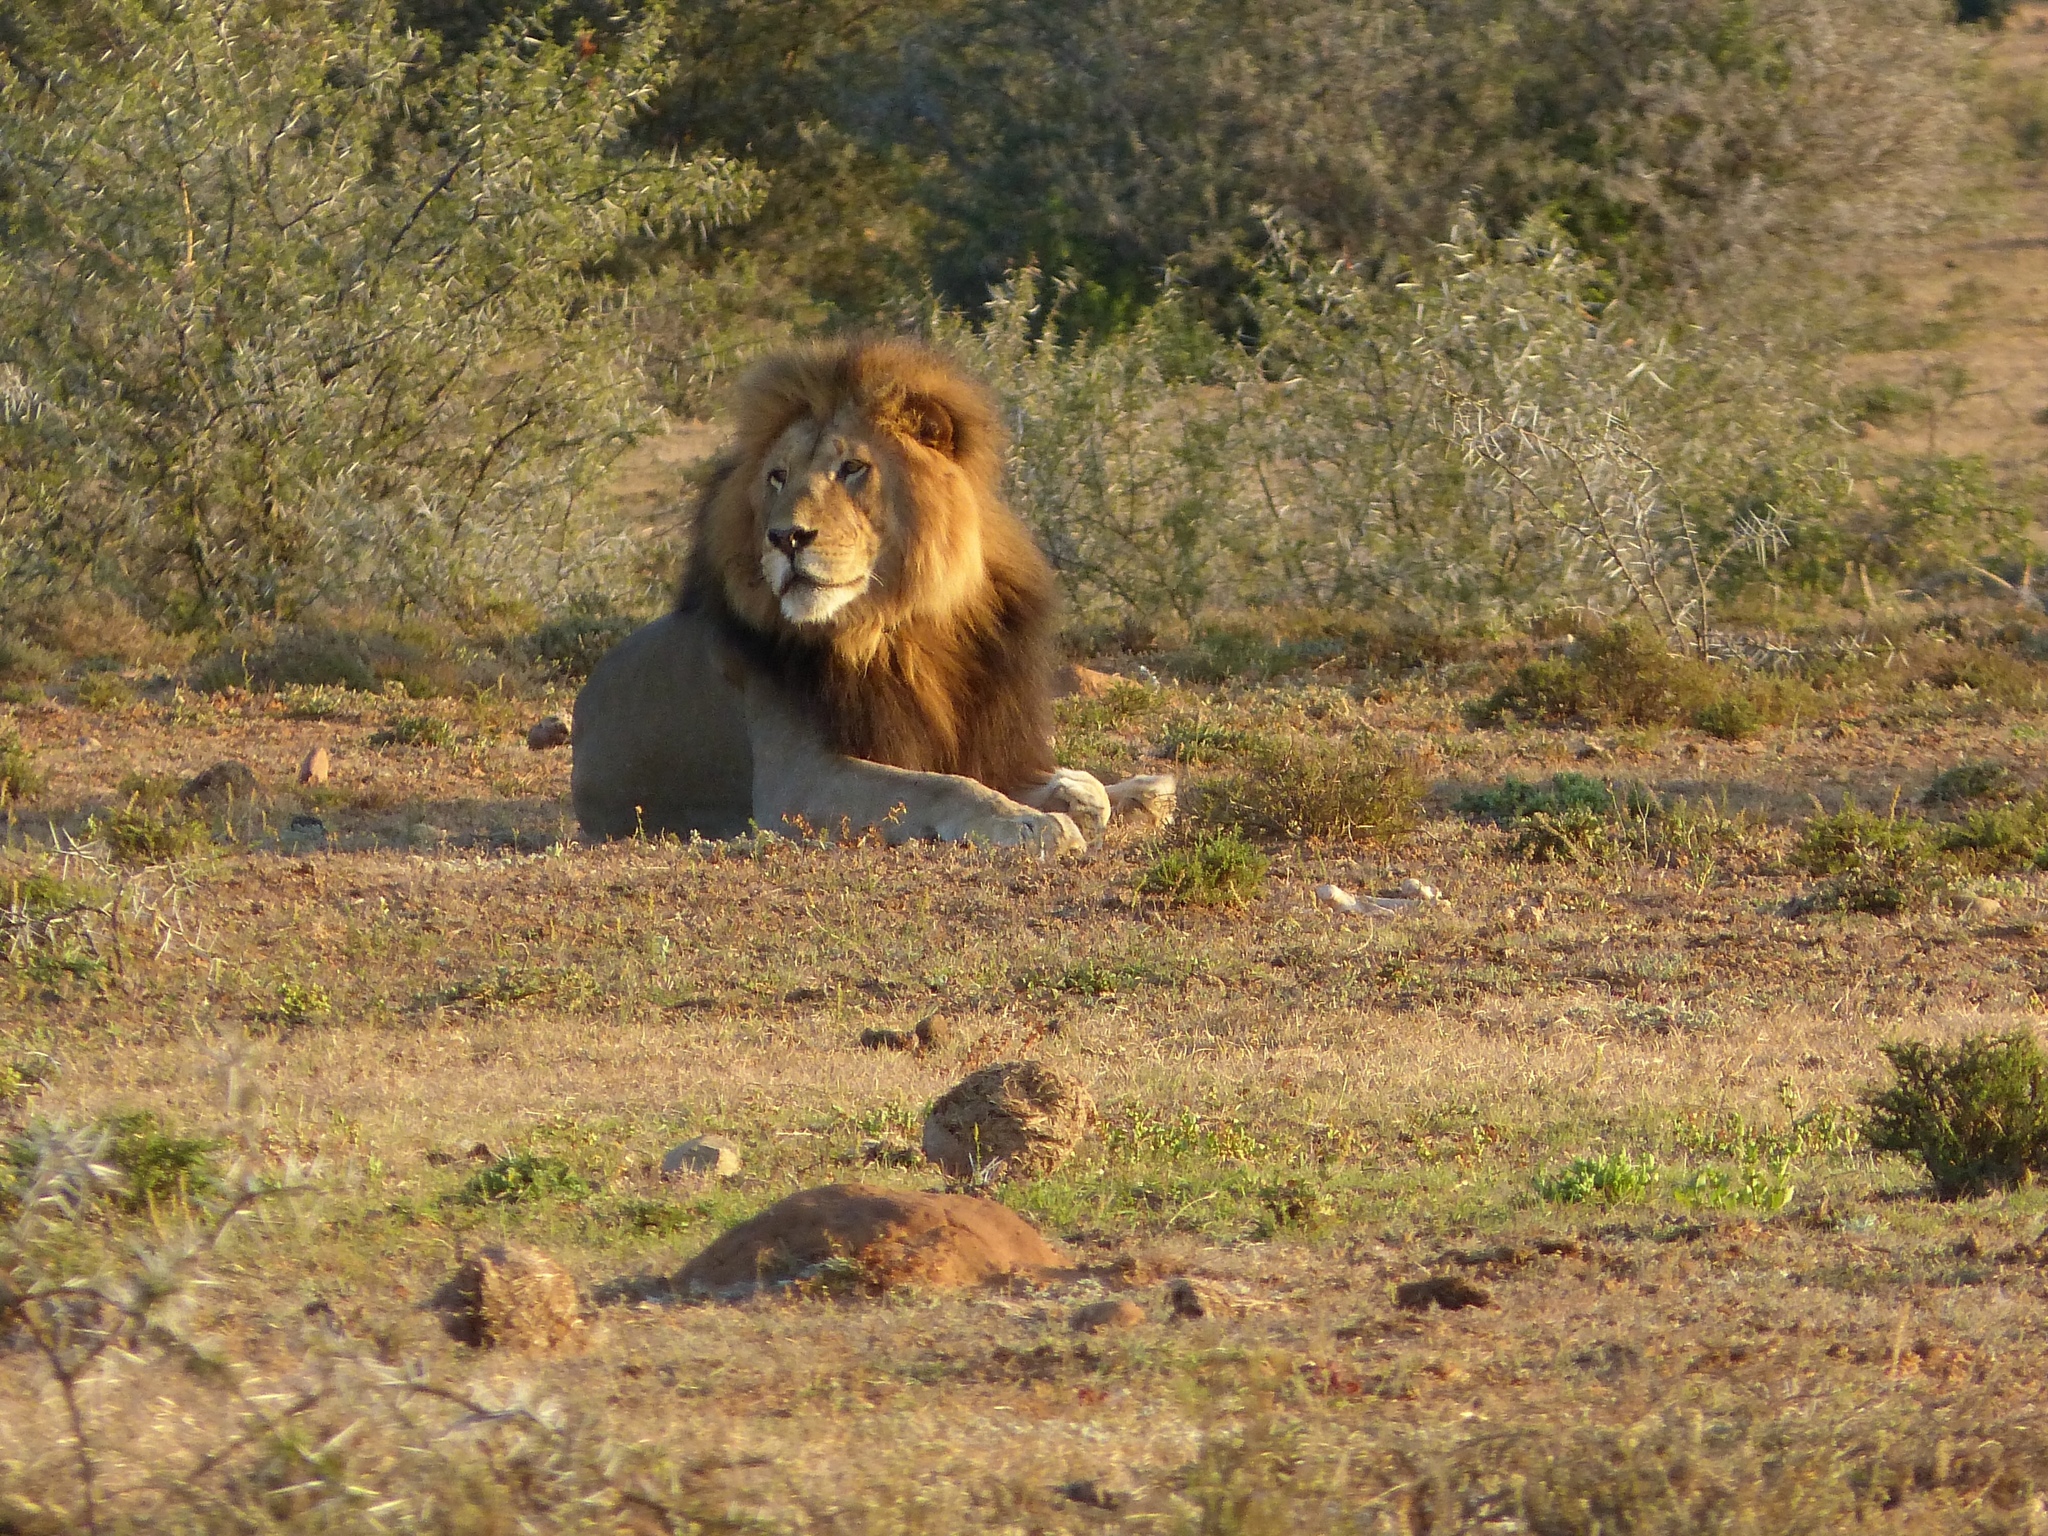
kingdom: Animalia
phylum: Chordata
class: Mammalia
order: Carnivora
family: Felidae
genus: Panthera
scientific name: Panthera leo
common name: Lion
